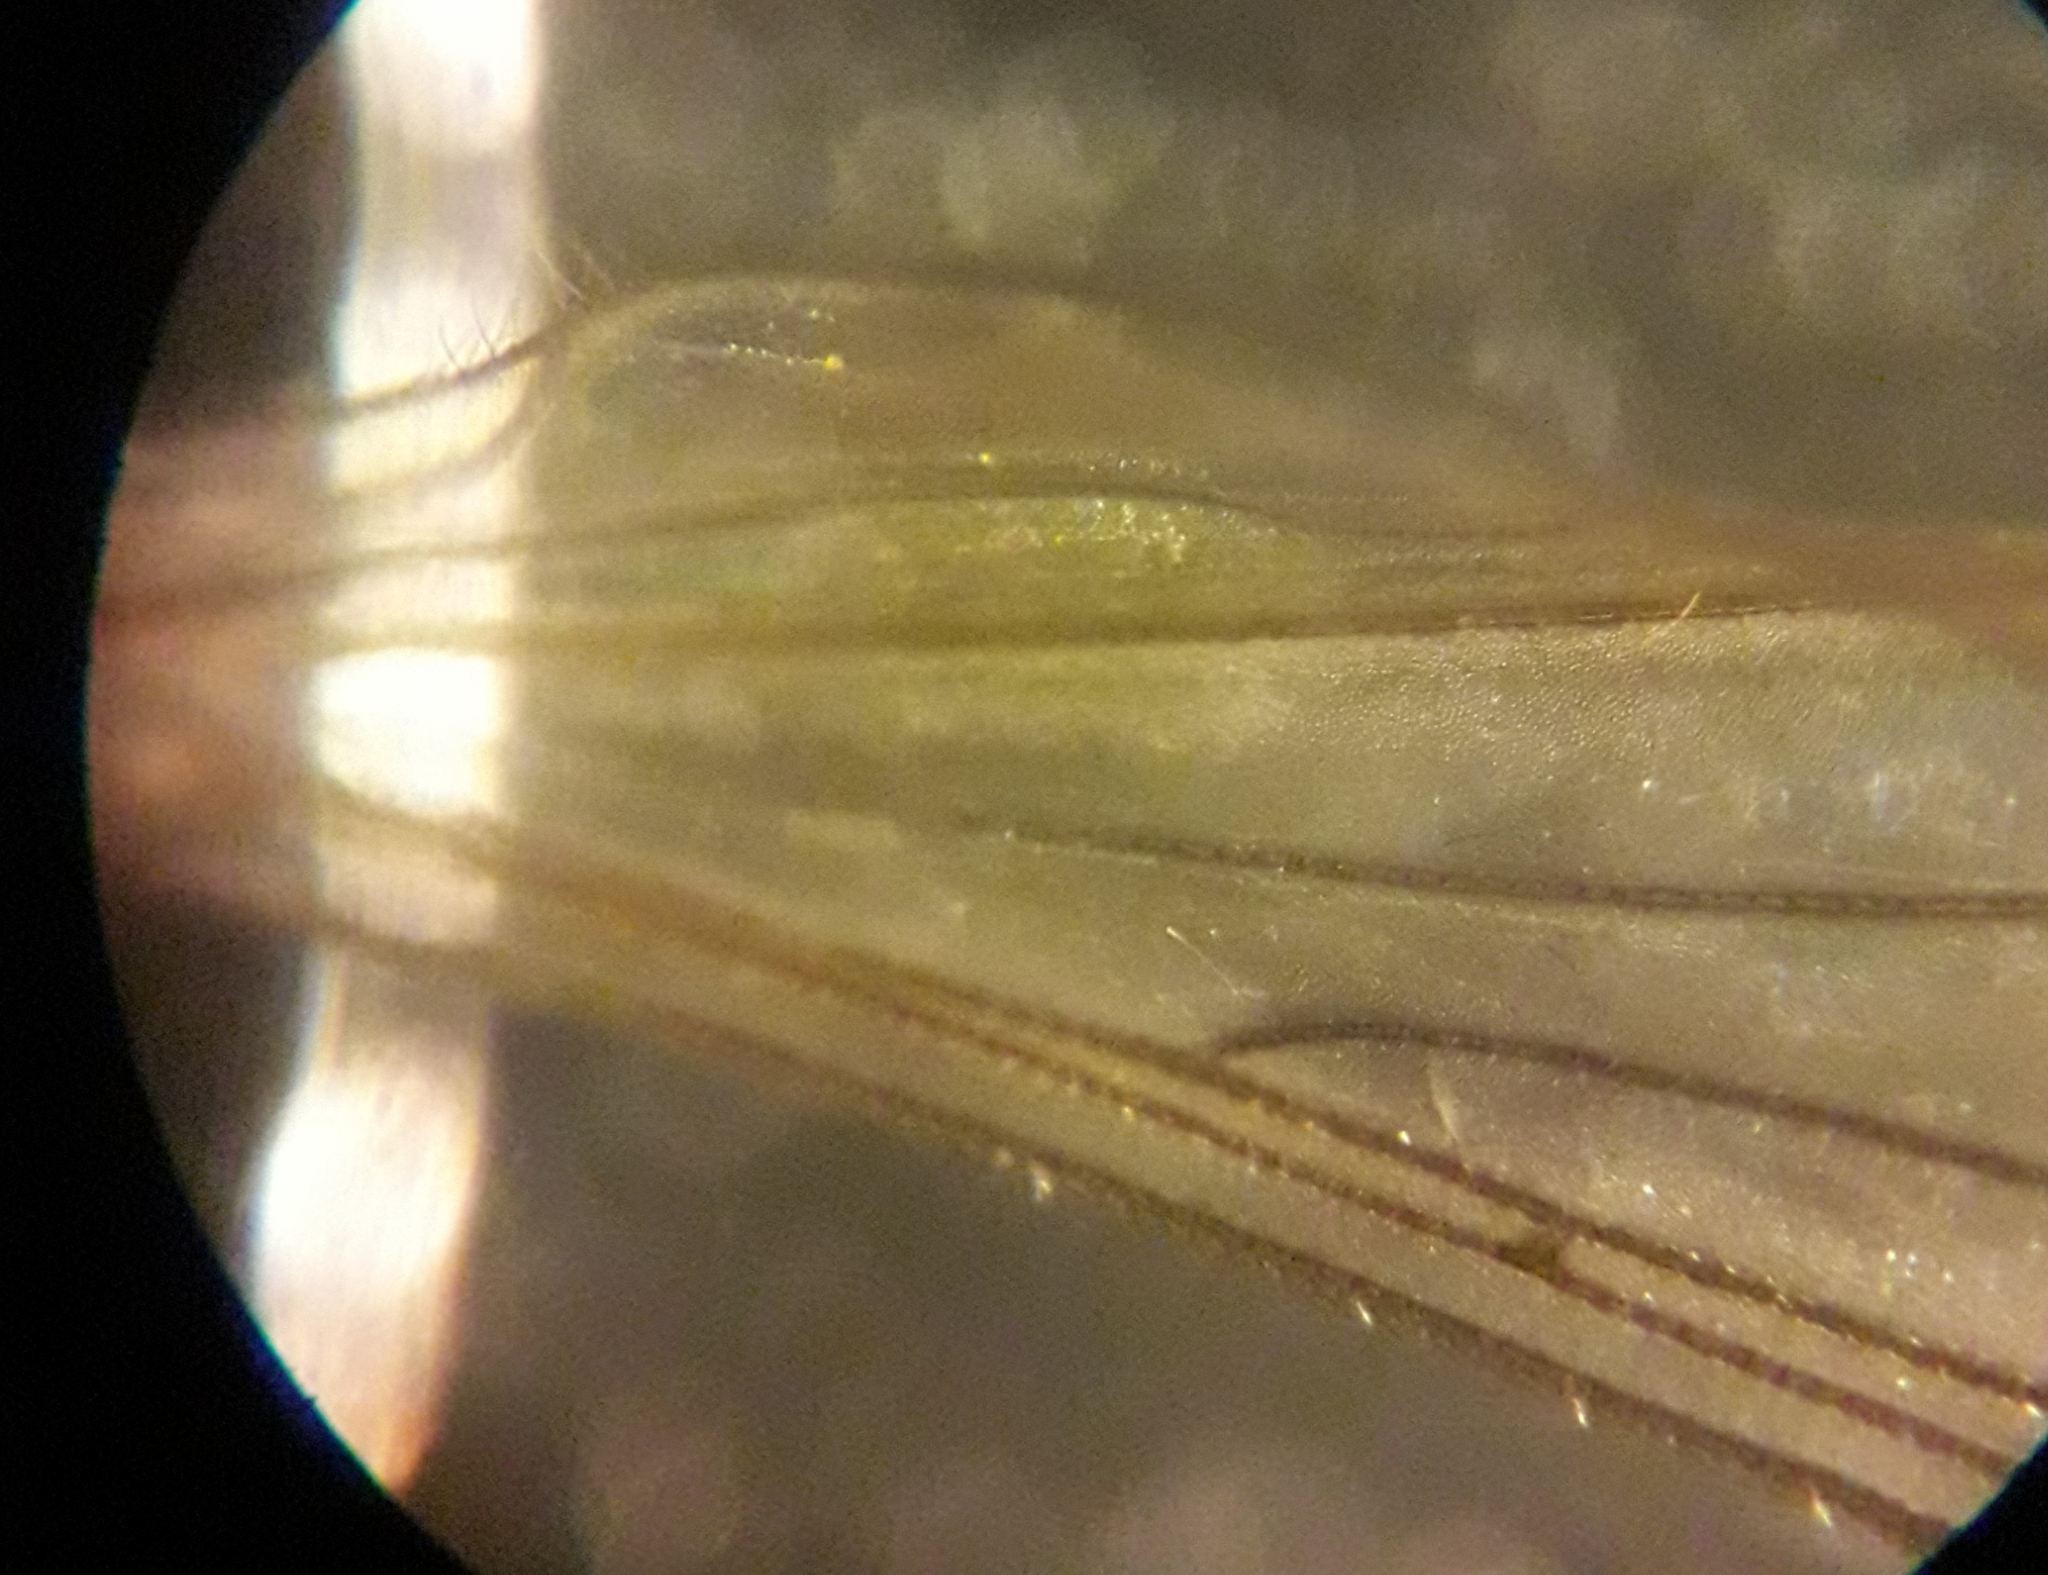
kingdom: Animalia
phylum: Arthropoda
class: Insecta
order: Diptera
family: Trichoceridae
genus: Trichocera
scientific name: Trichocera annulata
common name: Winter gnat
